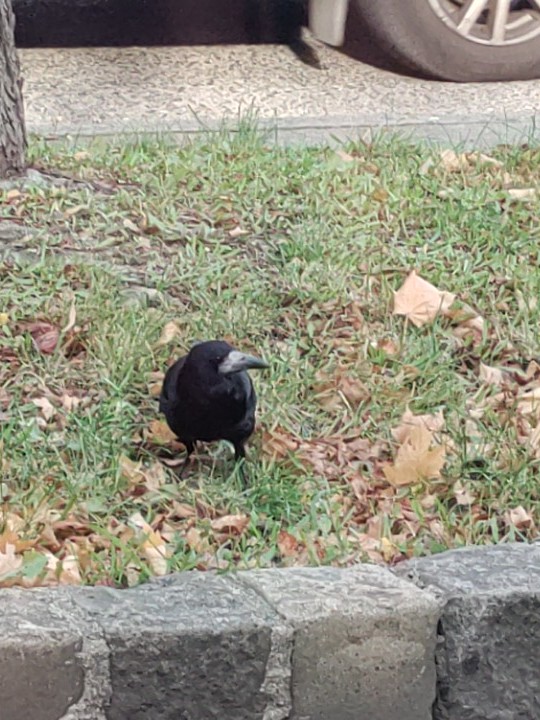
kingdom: Animalia
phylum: Chordata
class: Aves
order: Passeriformes
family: Corvidae
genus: Corvus
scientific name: Corvus frugilegus
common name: Rook
